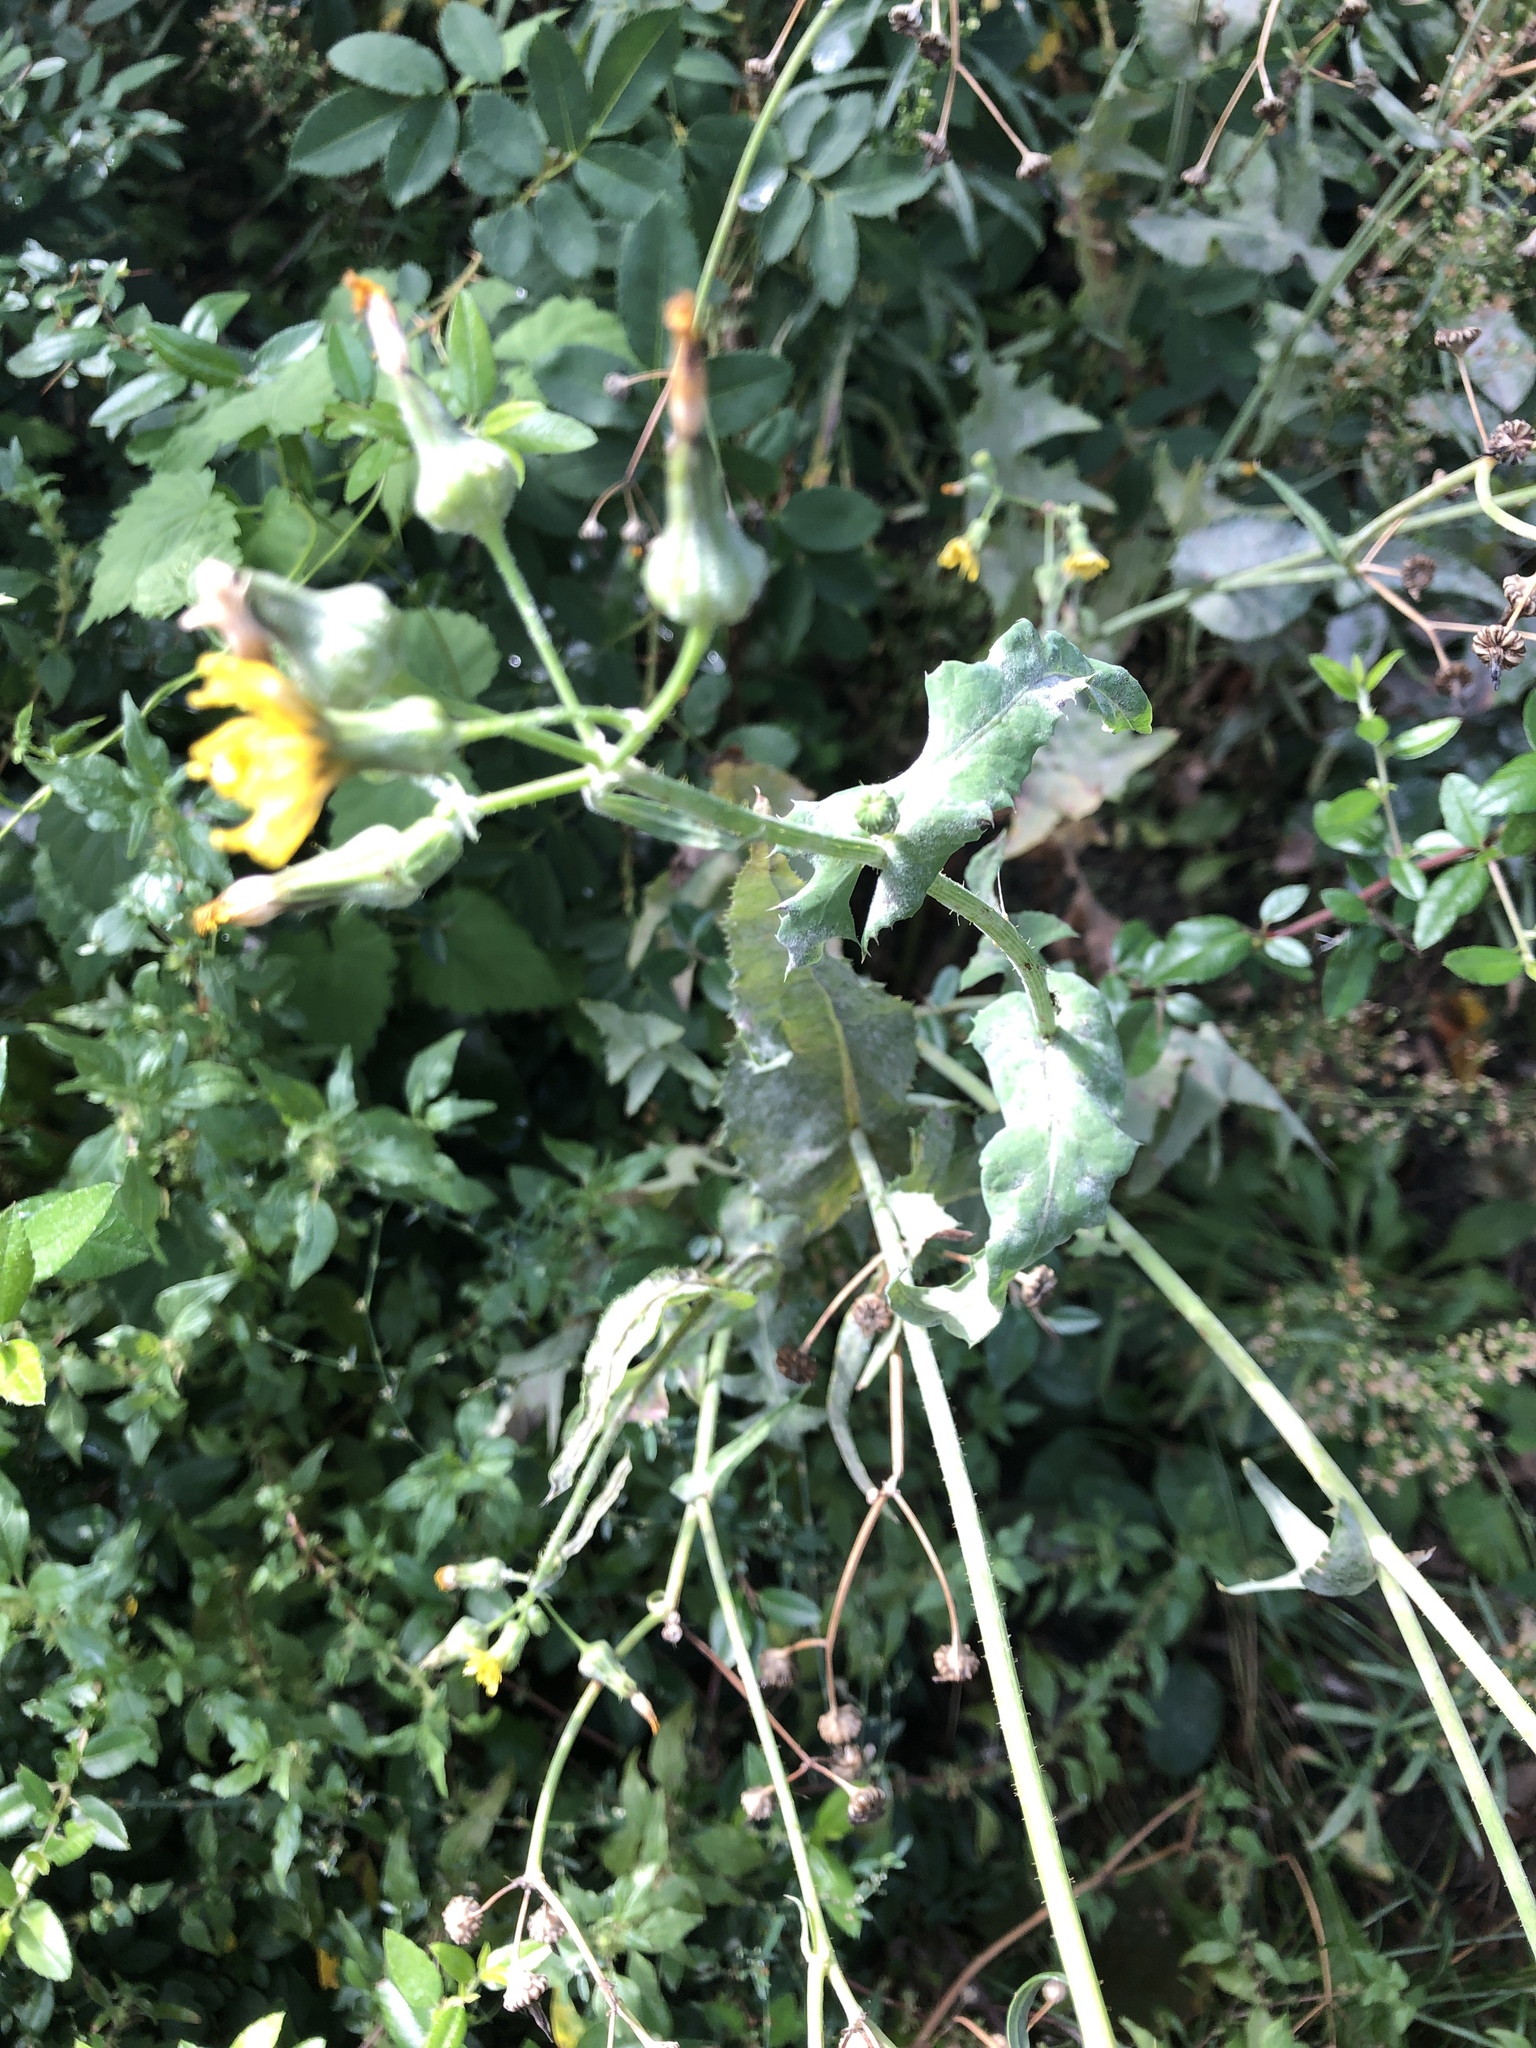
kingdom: Plantae
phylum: Tracheophyta
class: Magnoliopsida
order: Asterales
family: Asteraceae
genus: Sonchus
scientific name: Sonchus oleraceus
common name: Common sowthistle
